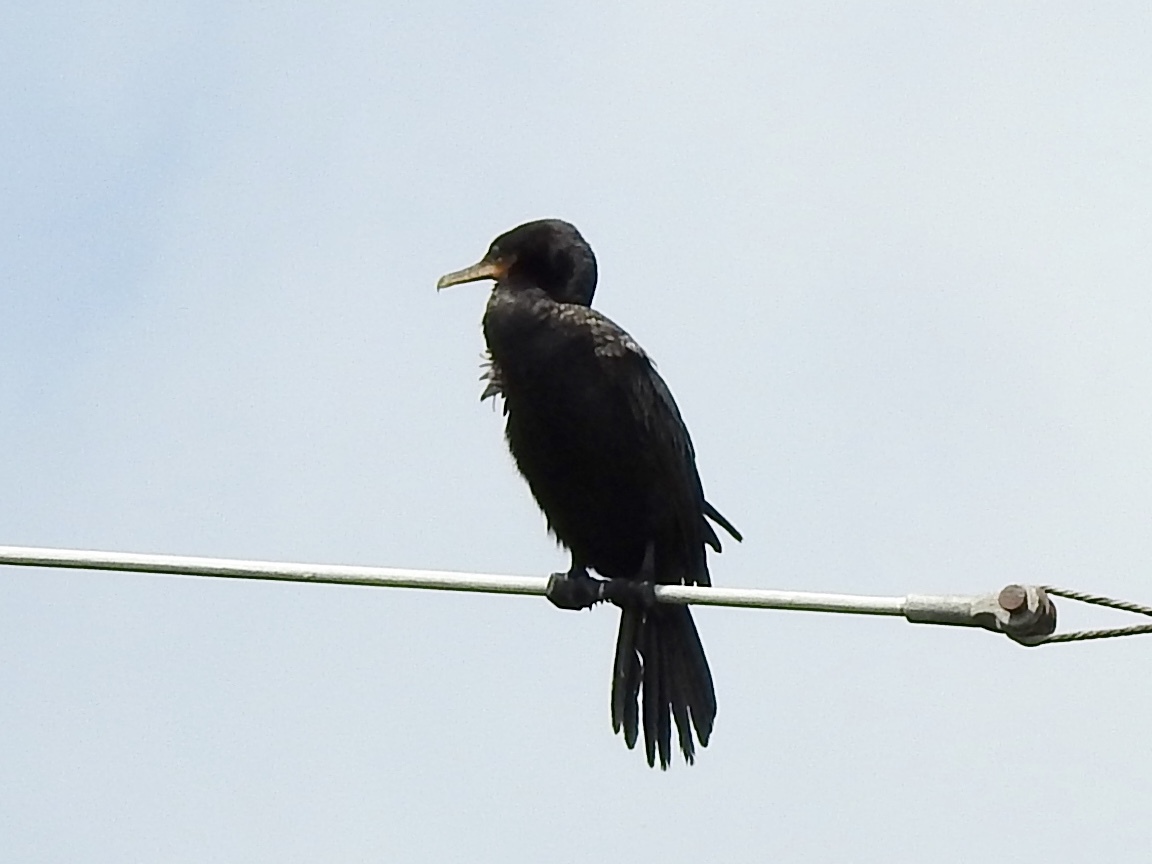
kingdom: Animalia
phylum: Chordata
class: Aves
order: Suliformes
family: Phalacrocoracidae
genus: Phalacrocorax
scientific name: Phalacrocorax brasilianus
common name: Neotropic cormorant
